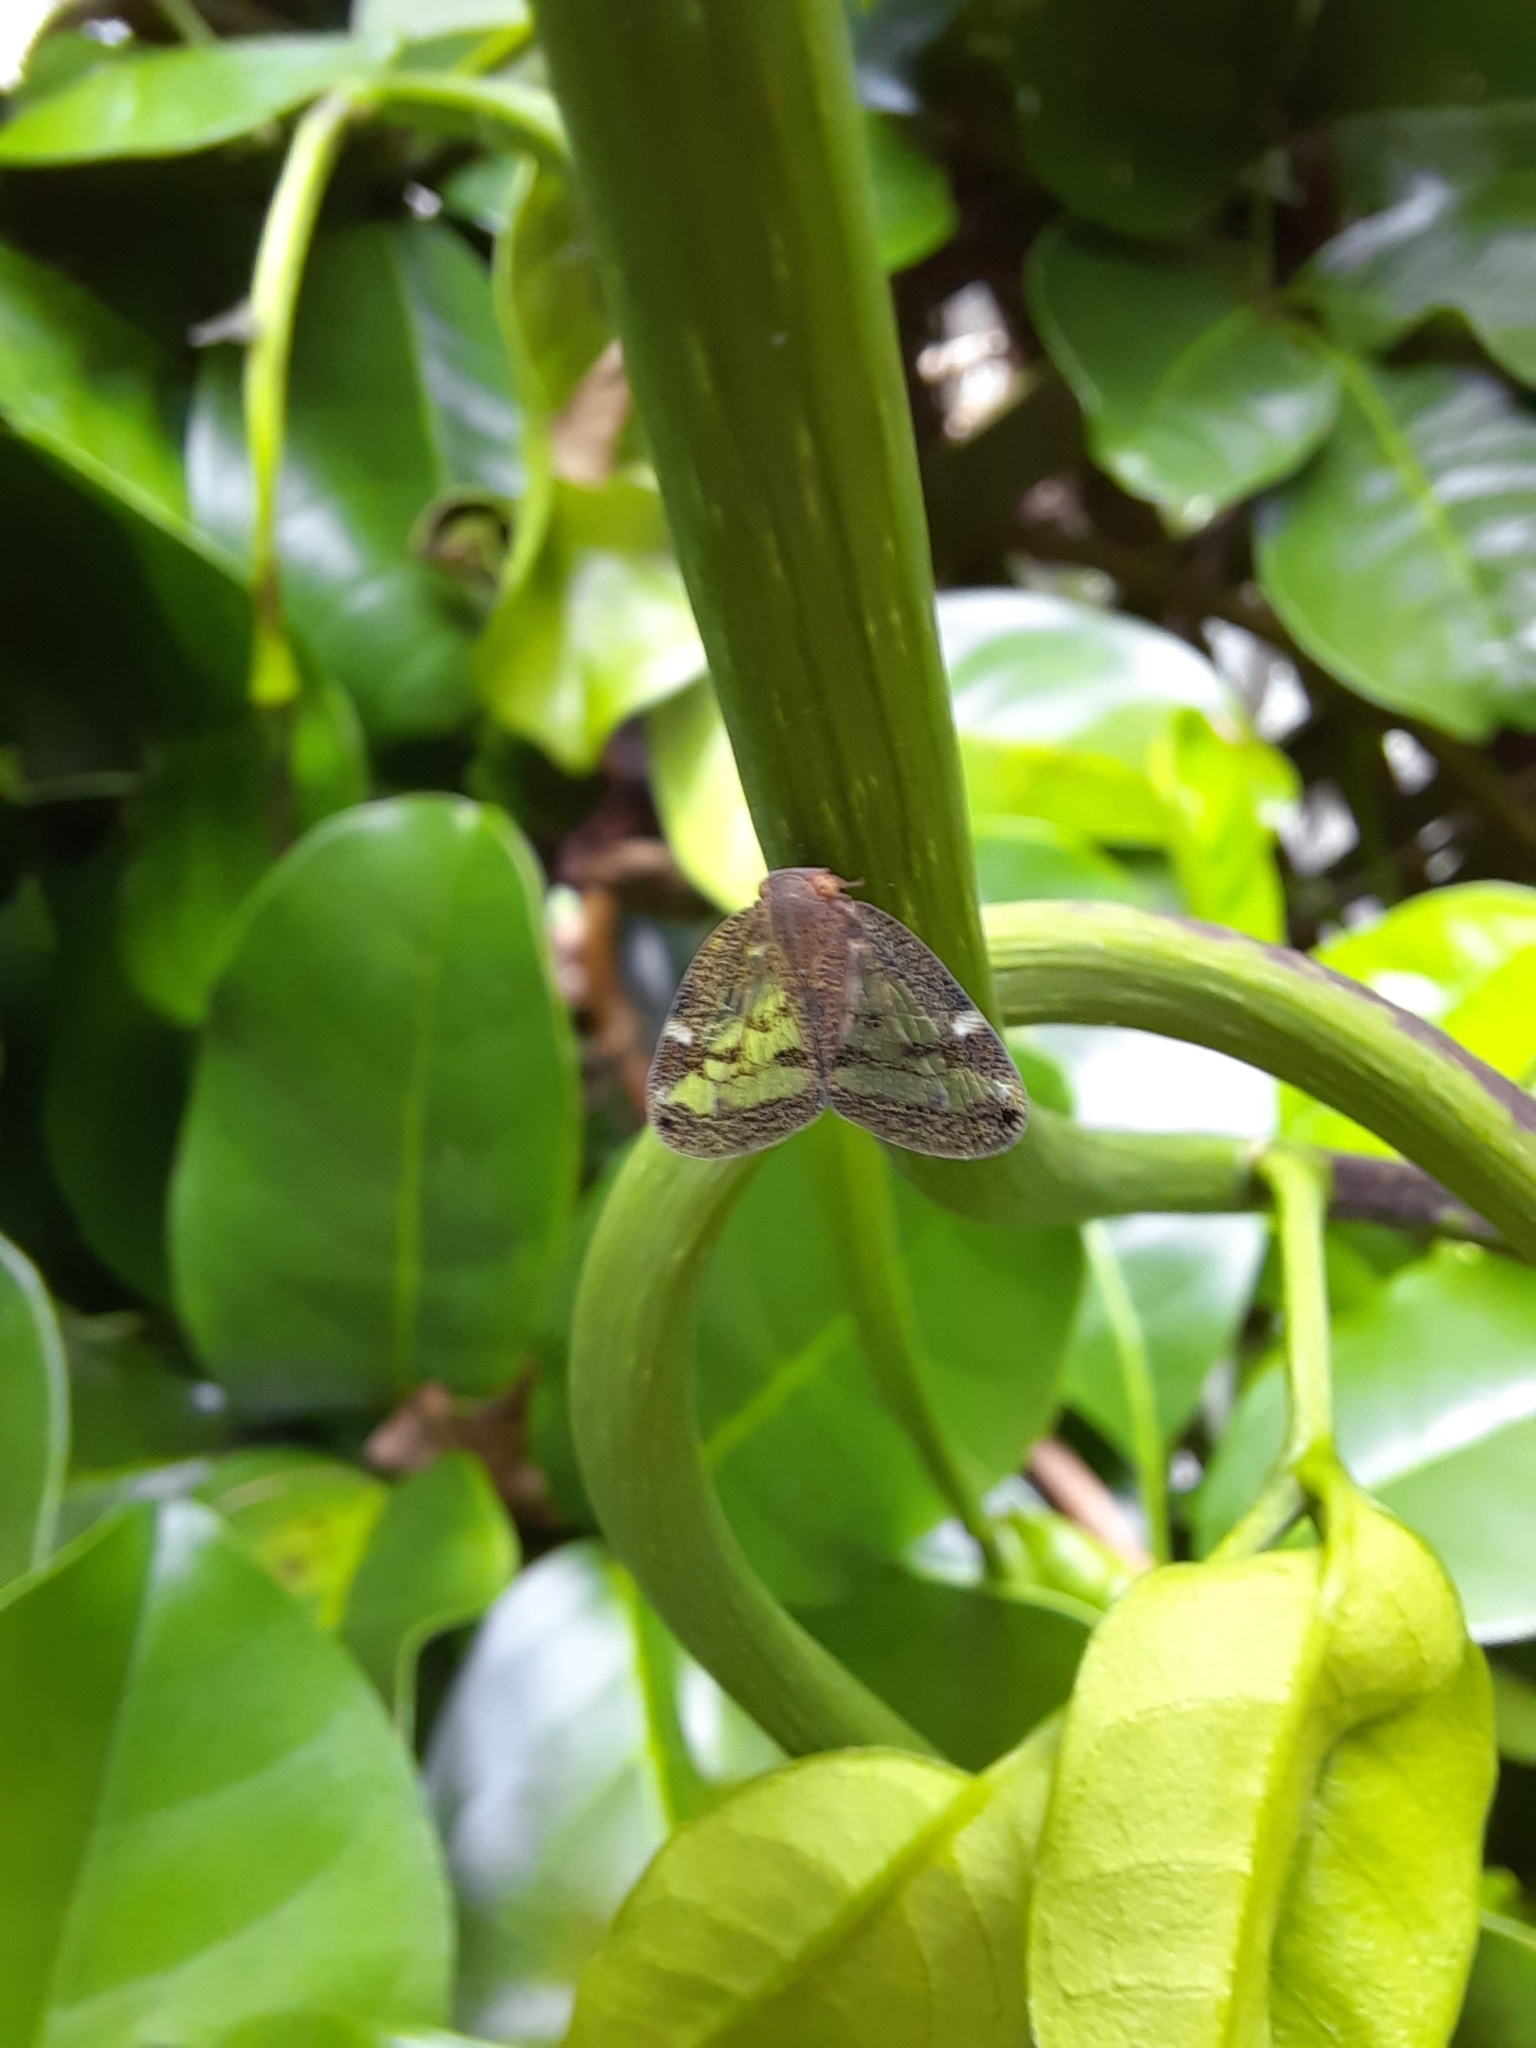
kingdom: Animalia
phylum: Arthropoda
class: Insecta
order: Hemiptera
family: Ricaniidae
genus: Scolypopa
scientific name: Scolypopa australis
